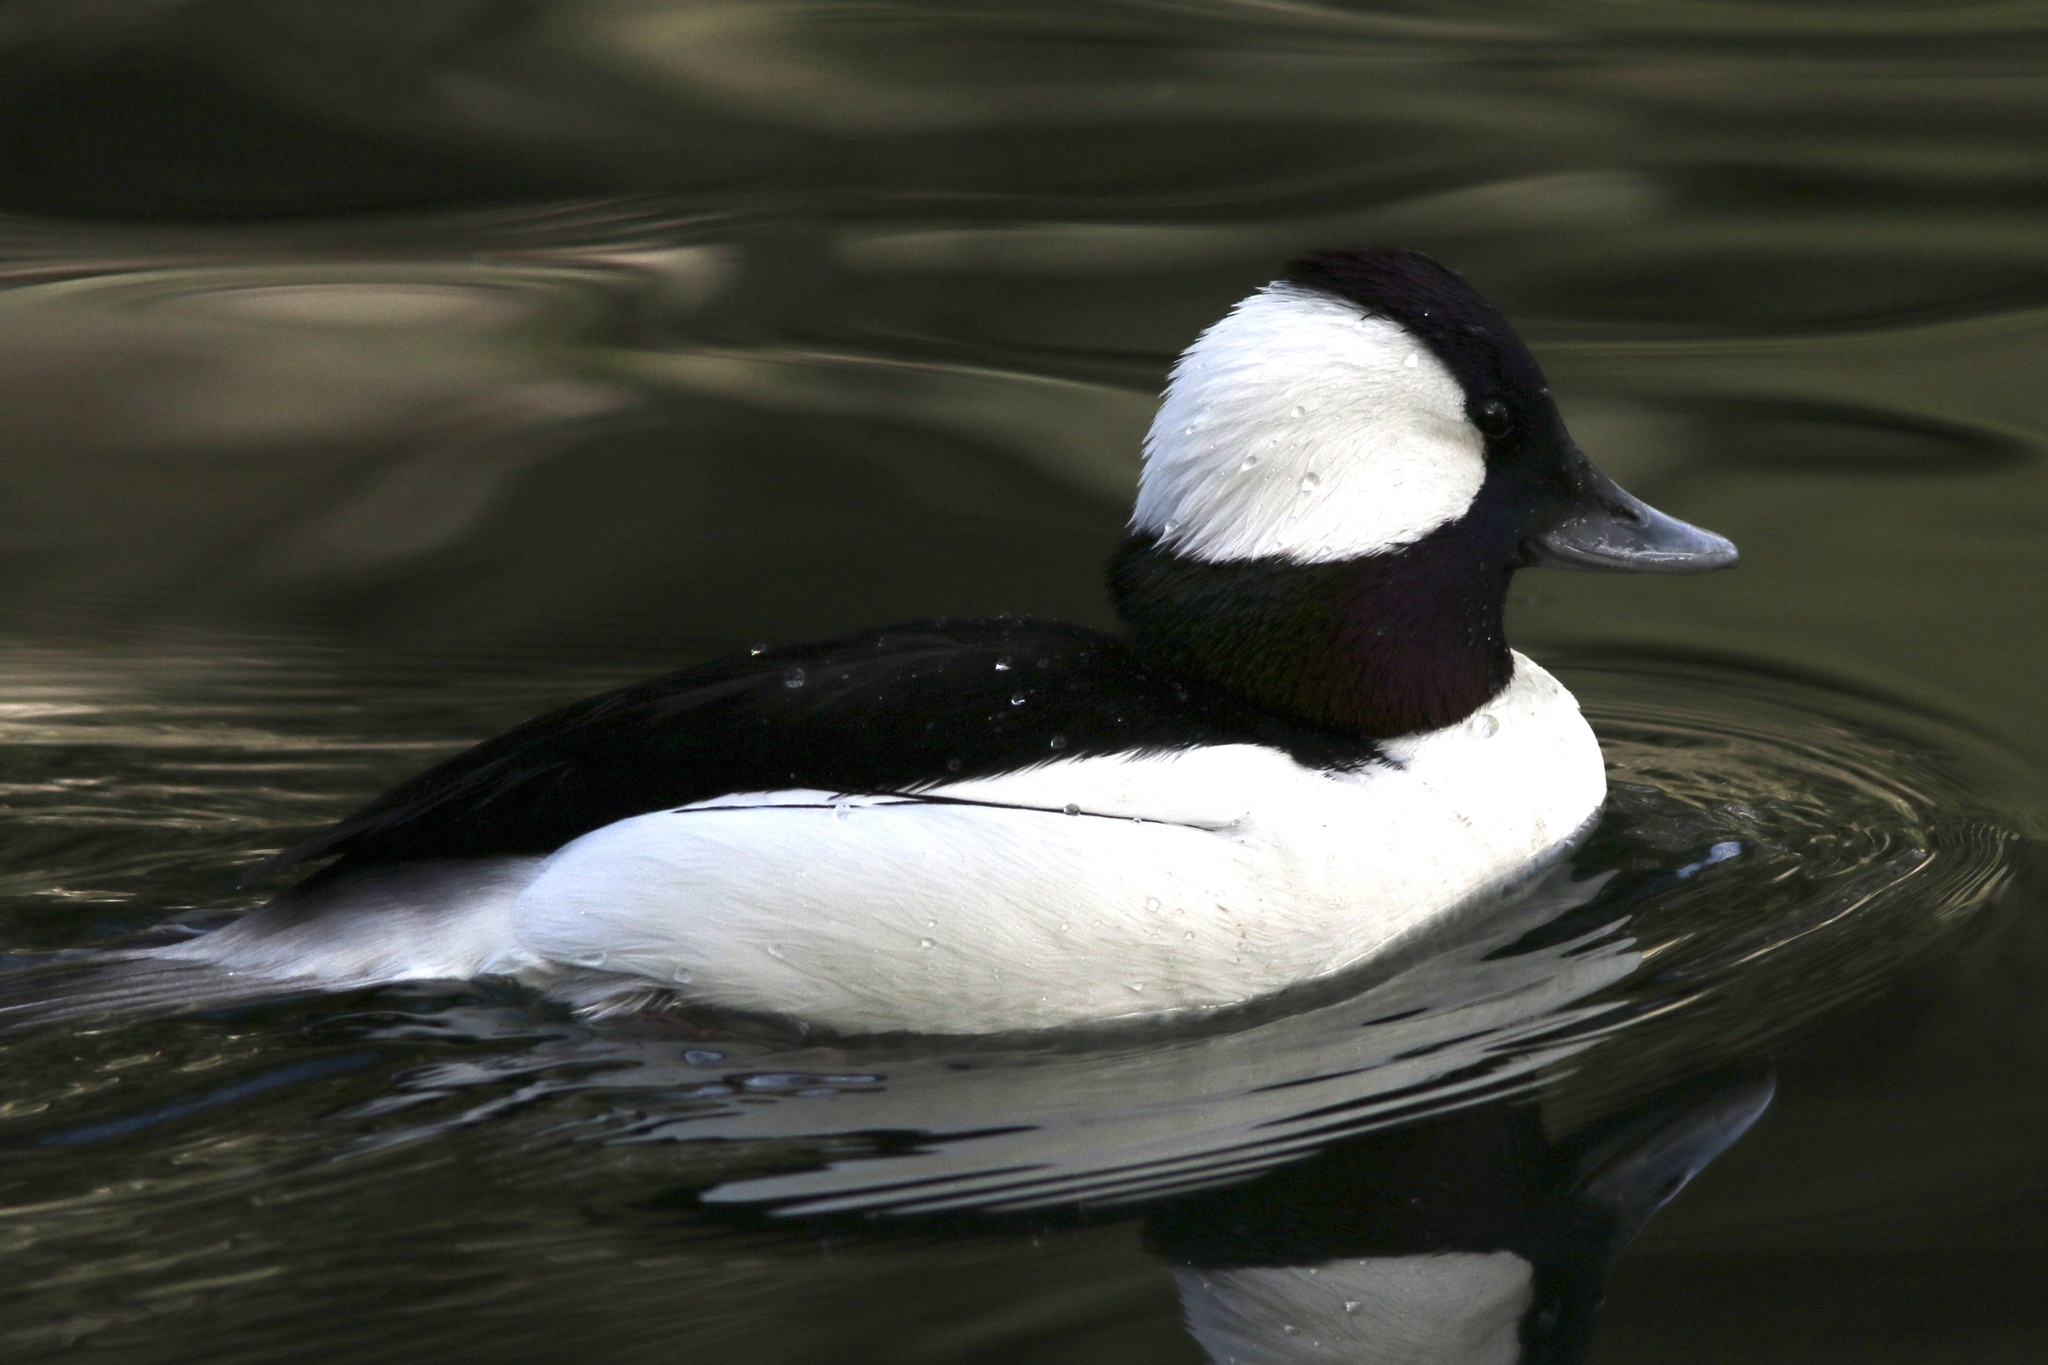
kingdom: Animalia
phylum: Chordata
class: Aves
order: Anseriformes
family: Anatidae
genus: Bucephala
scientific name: Bucephala albeola
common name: Bufflehead
